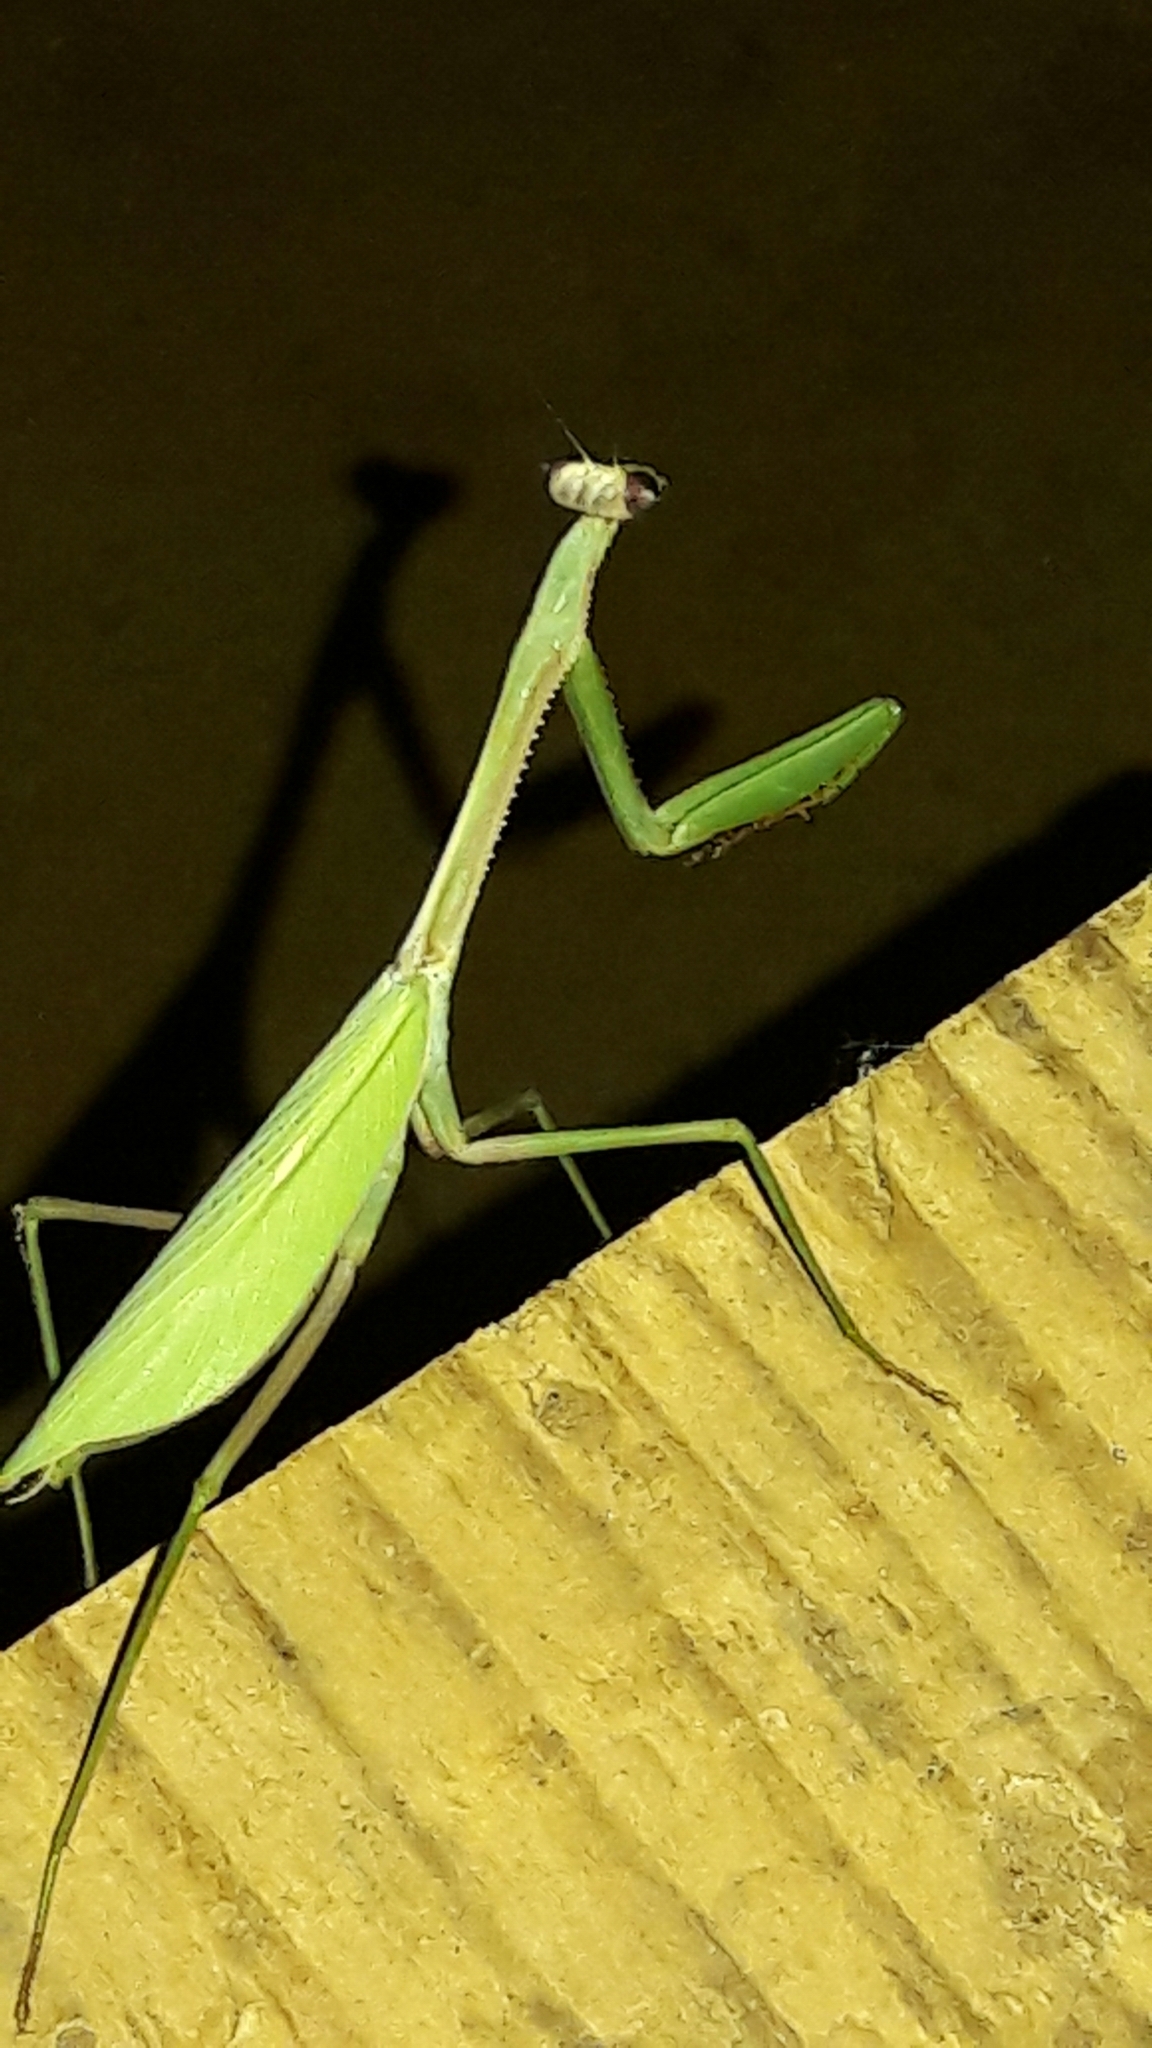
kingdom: Animalia
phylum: Arthropoda
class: Insecta
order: Mantodea
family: Mantidae
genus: Oxyopsis
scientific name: Oxyopsis
